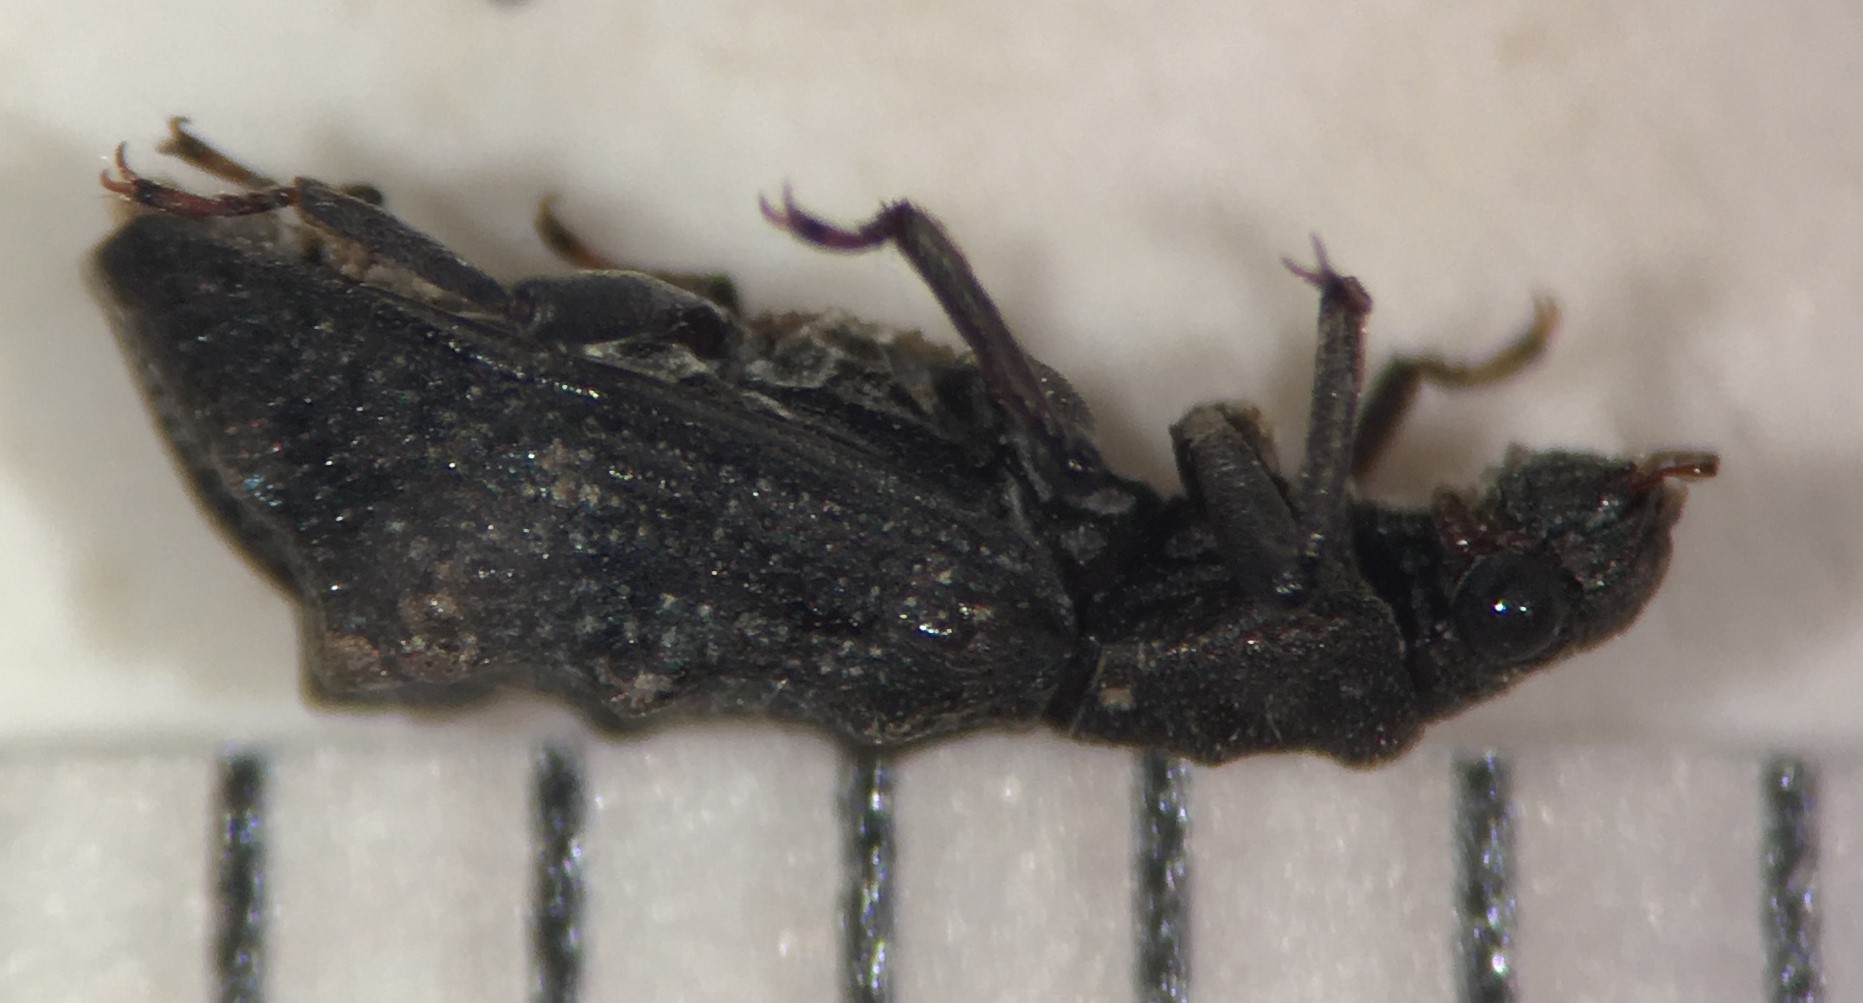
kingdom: Animalia
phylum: Arthropoda
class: Insecta
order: Coleoptera
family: Hydrochidae
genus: Hydrochus
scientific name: Hydrochus callosus
